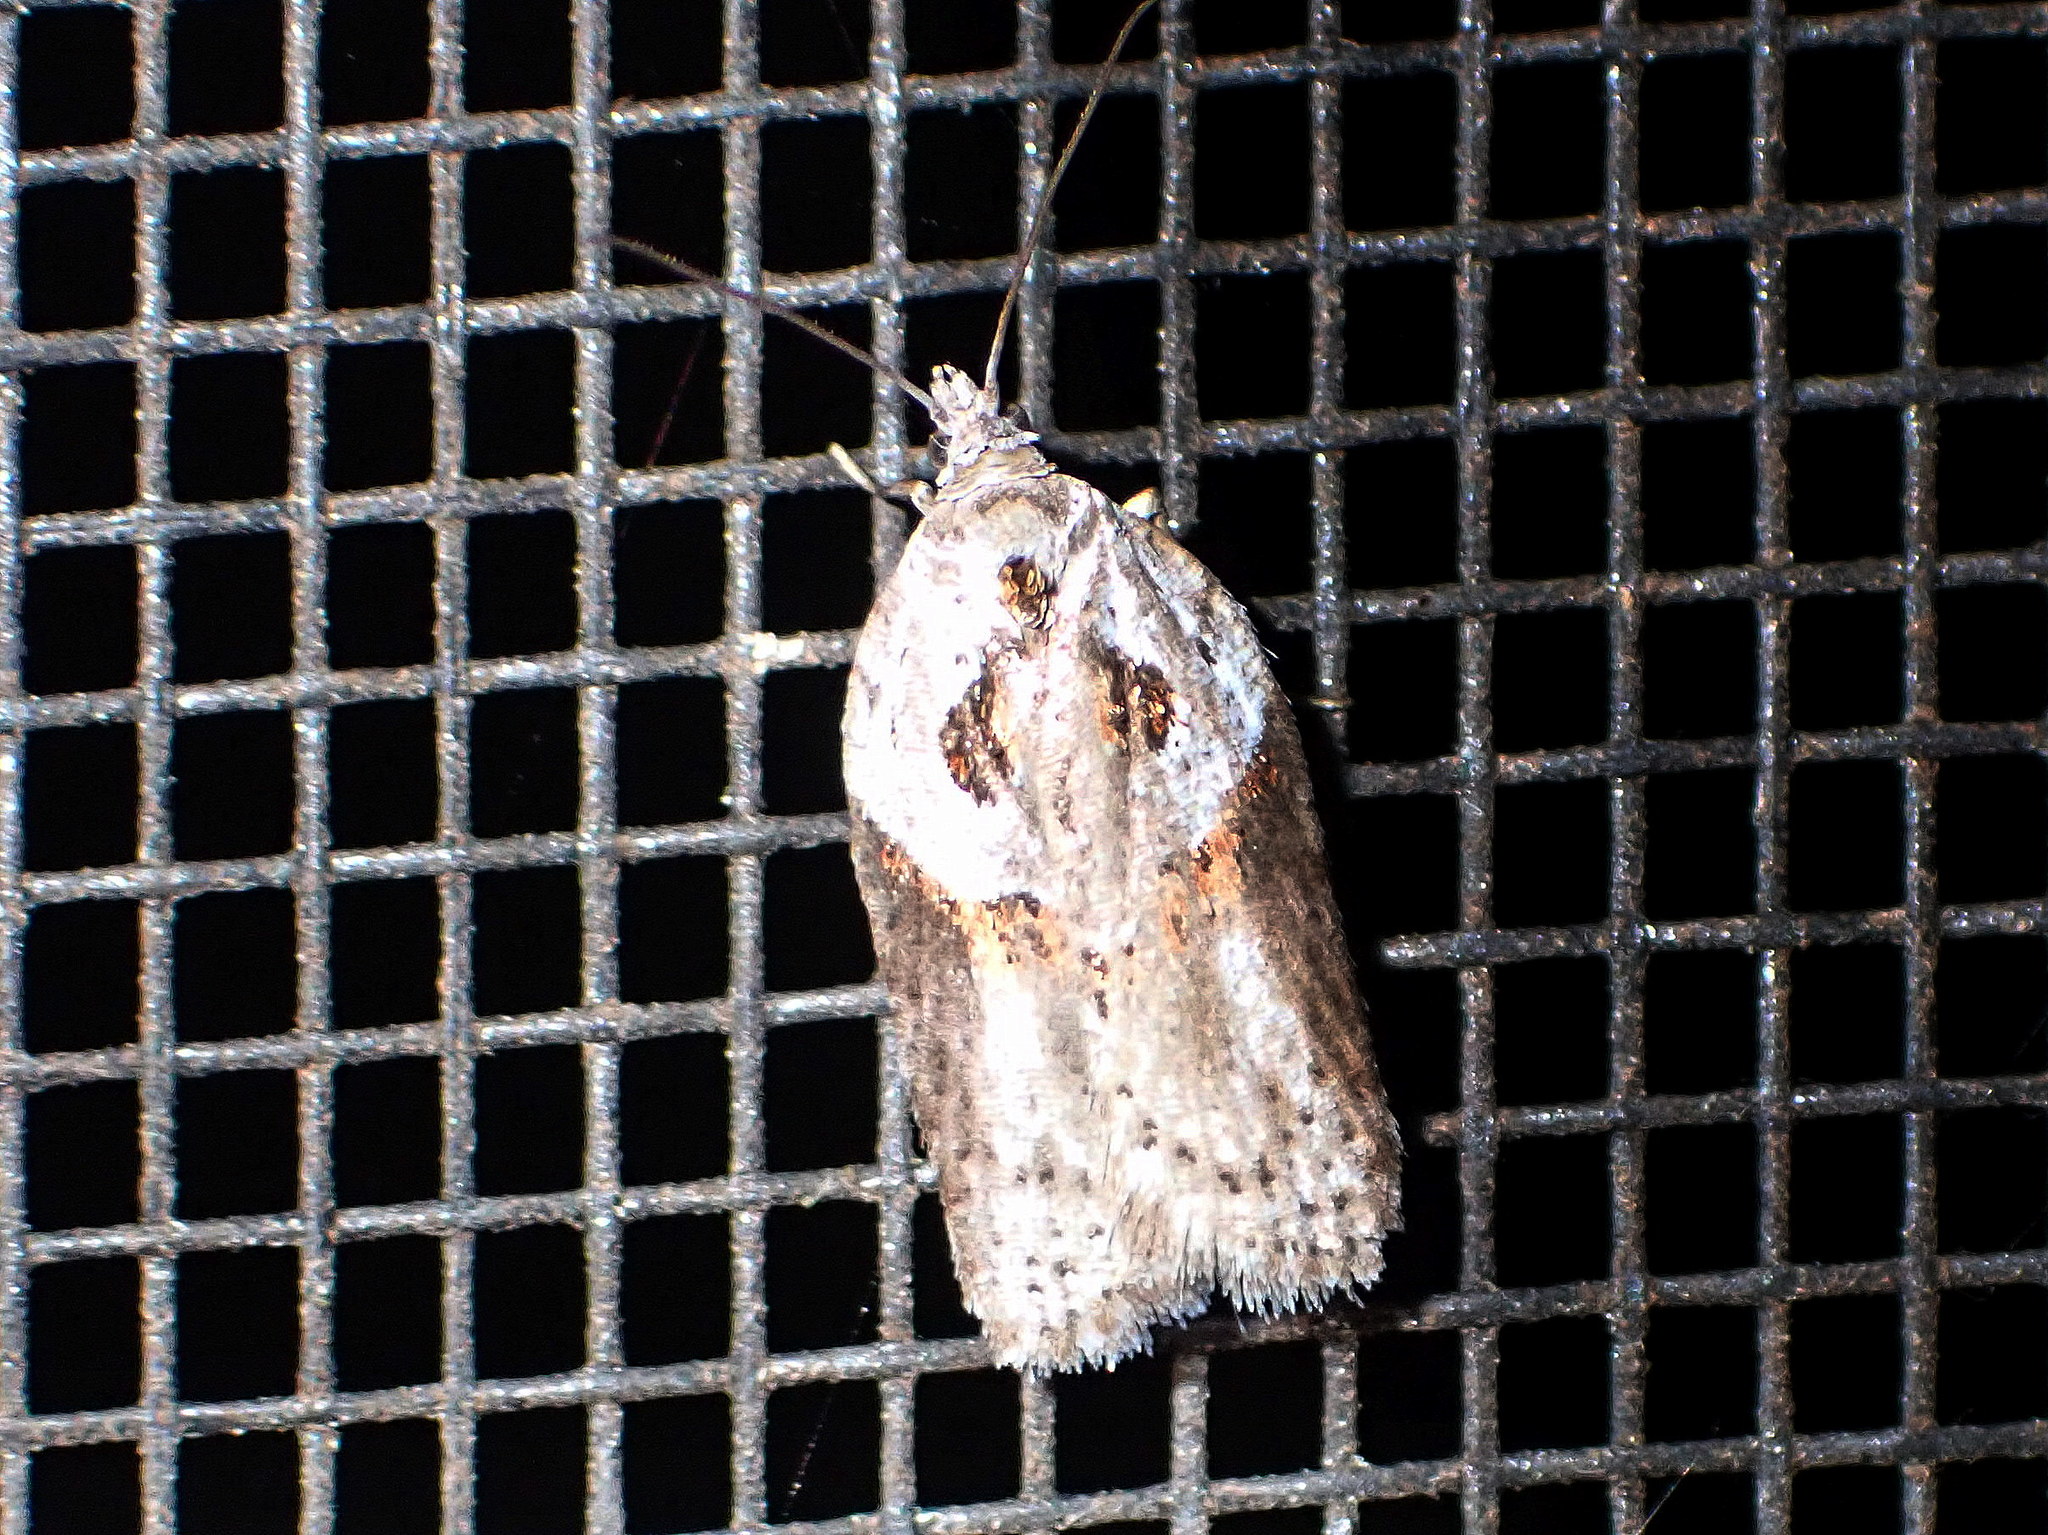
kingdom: Animalia
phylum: Arthropoda
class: Insecta
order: Lepidoptera
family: Tortricidae
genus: Acleris
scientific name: Acleris maculidorsana
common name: Stained-back leafroller moth
